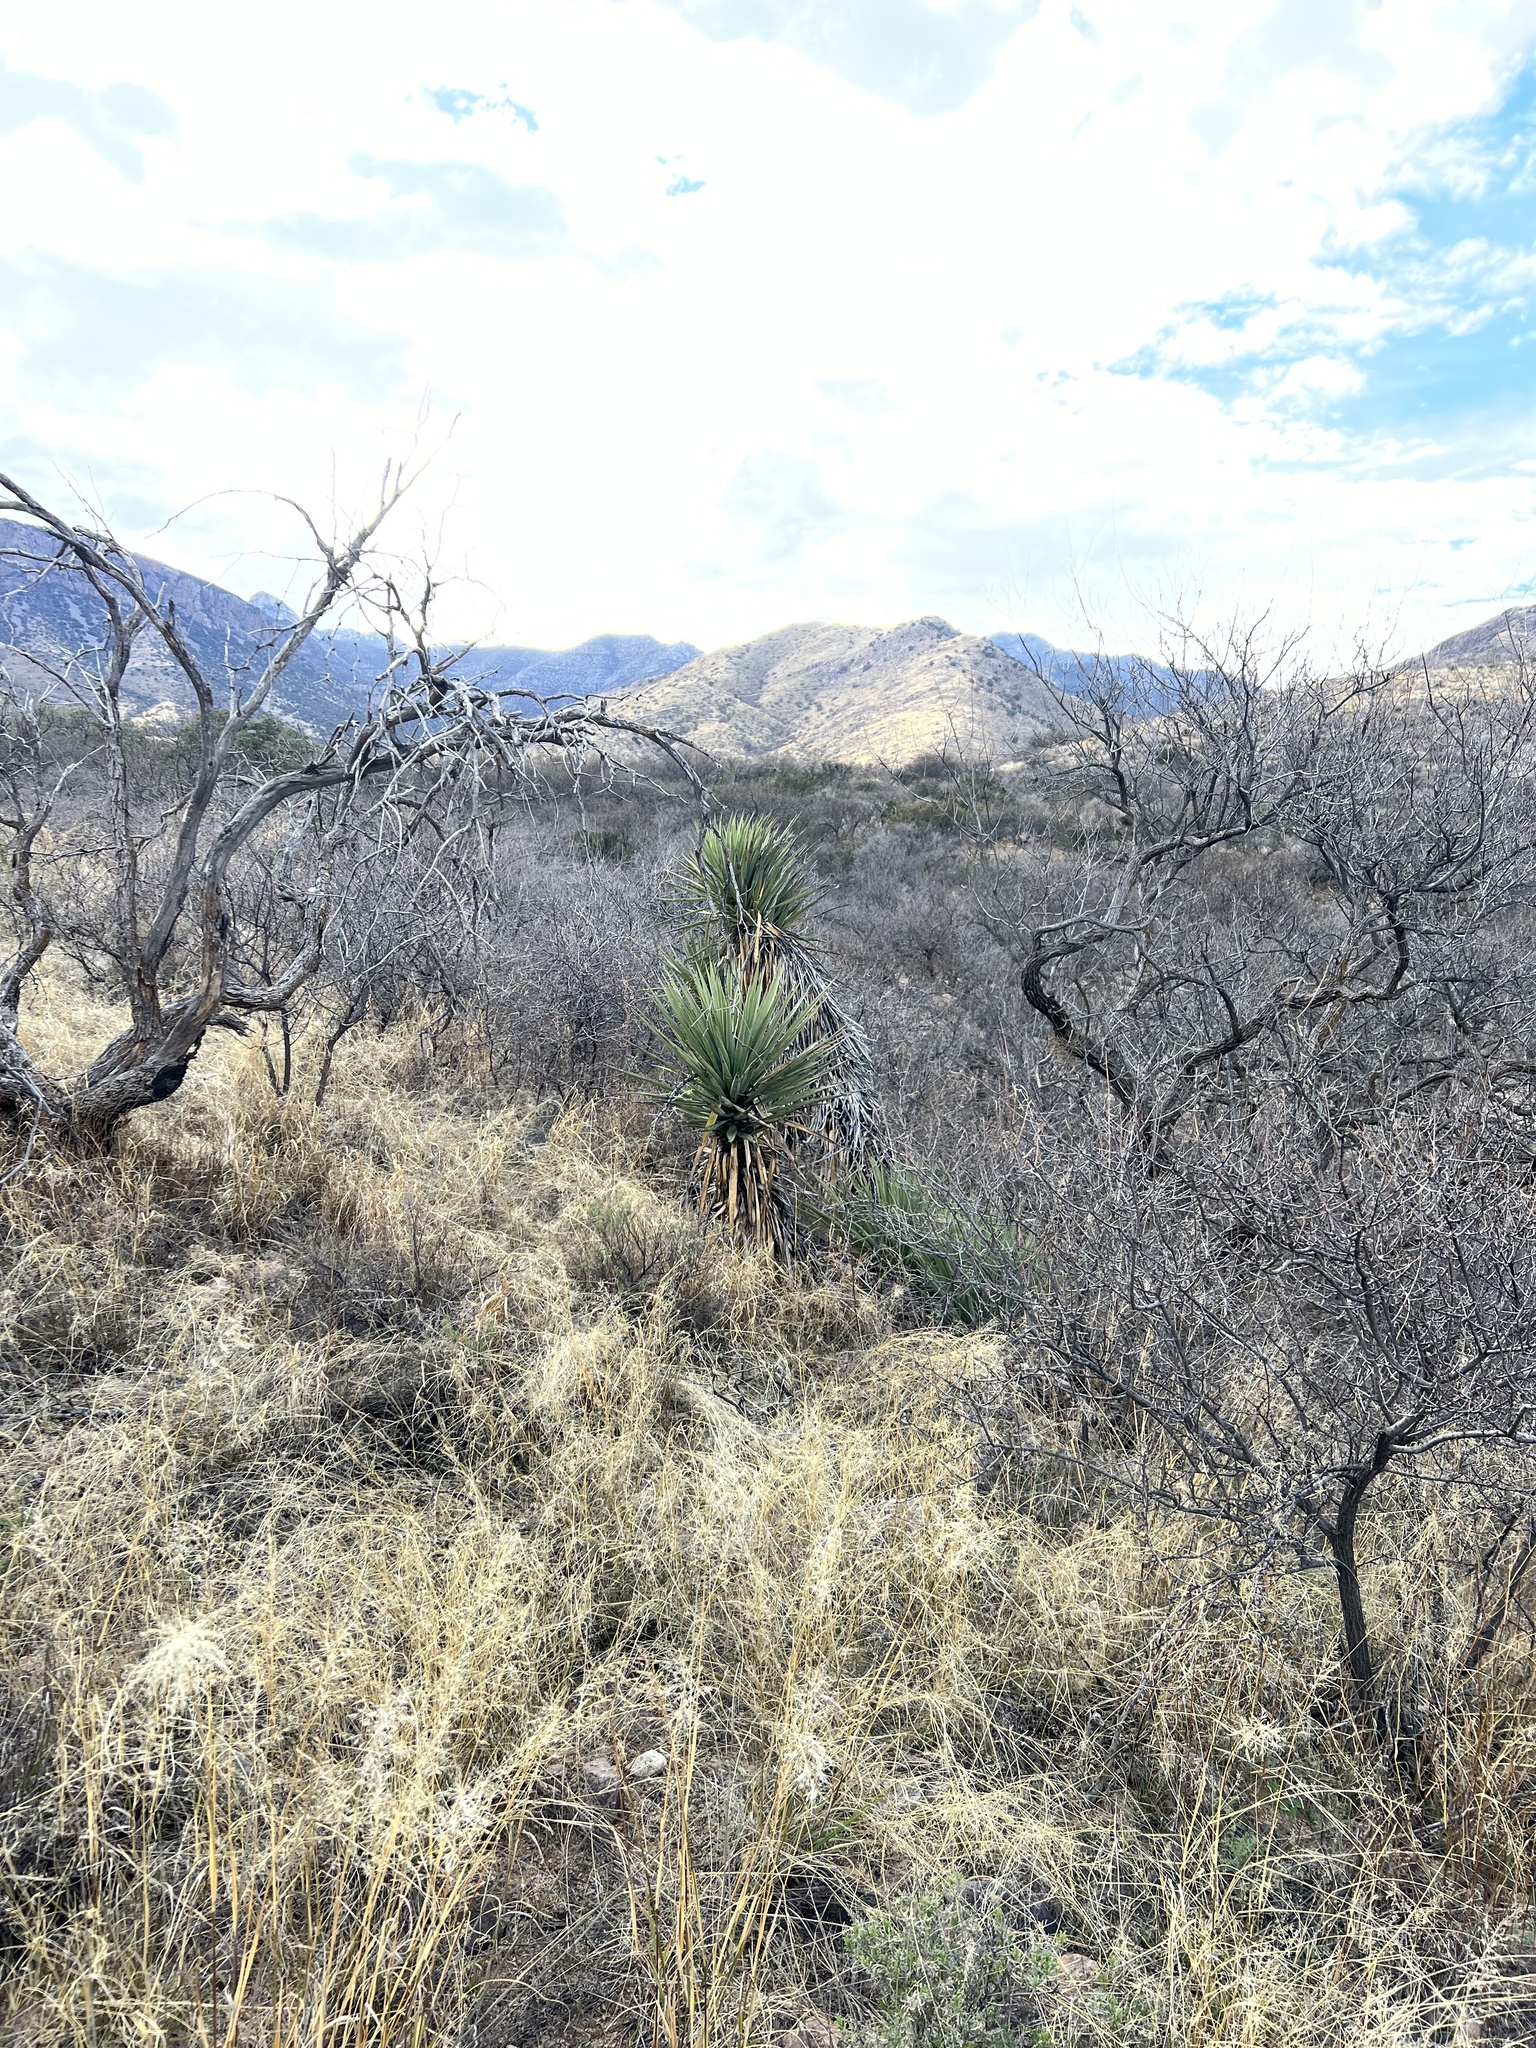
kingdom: Plantae
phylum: Tracheophyta
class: Liliopsida
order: Asparagales
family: Asparagaceae
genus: Yucca
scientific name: Yucca schottii
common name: Hoary yucca
